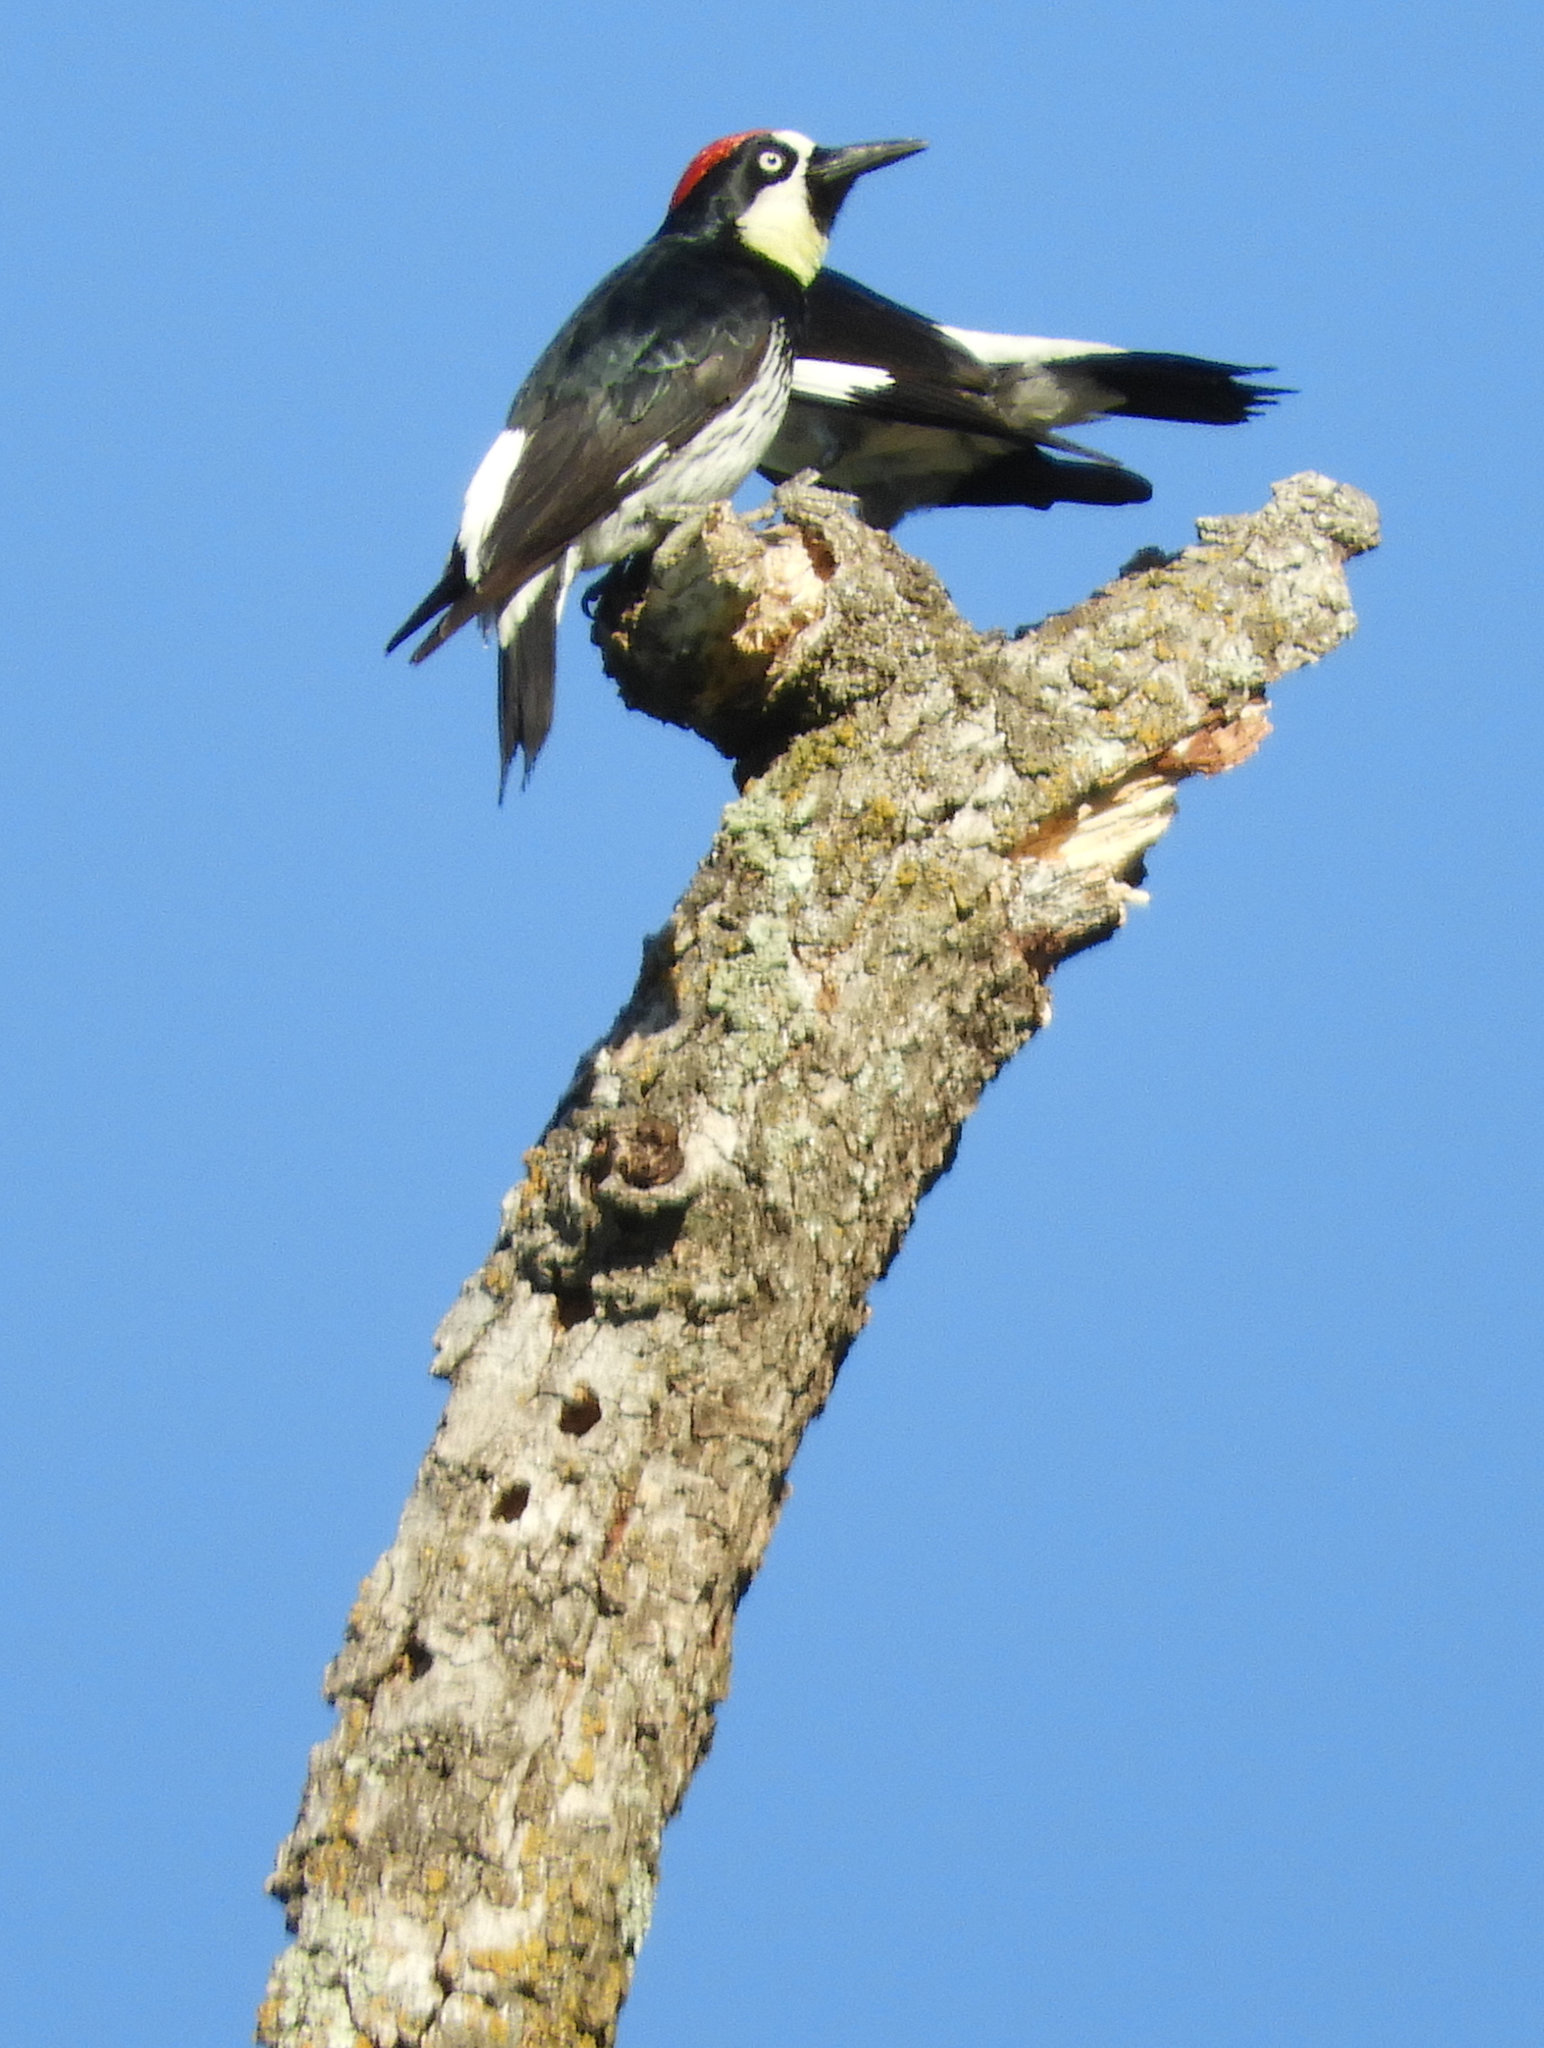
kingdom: Animalia
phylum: Chordata
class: Aves
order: Piciformes
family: Picidae
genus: Melanerpes
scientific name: Melanerpes formicivorus
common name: Acorn woodpecker
